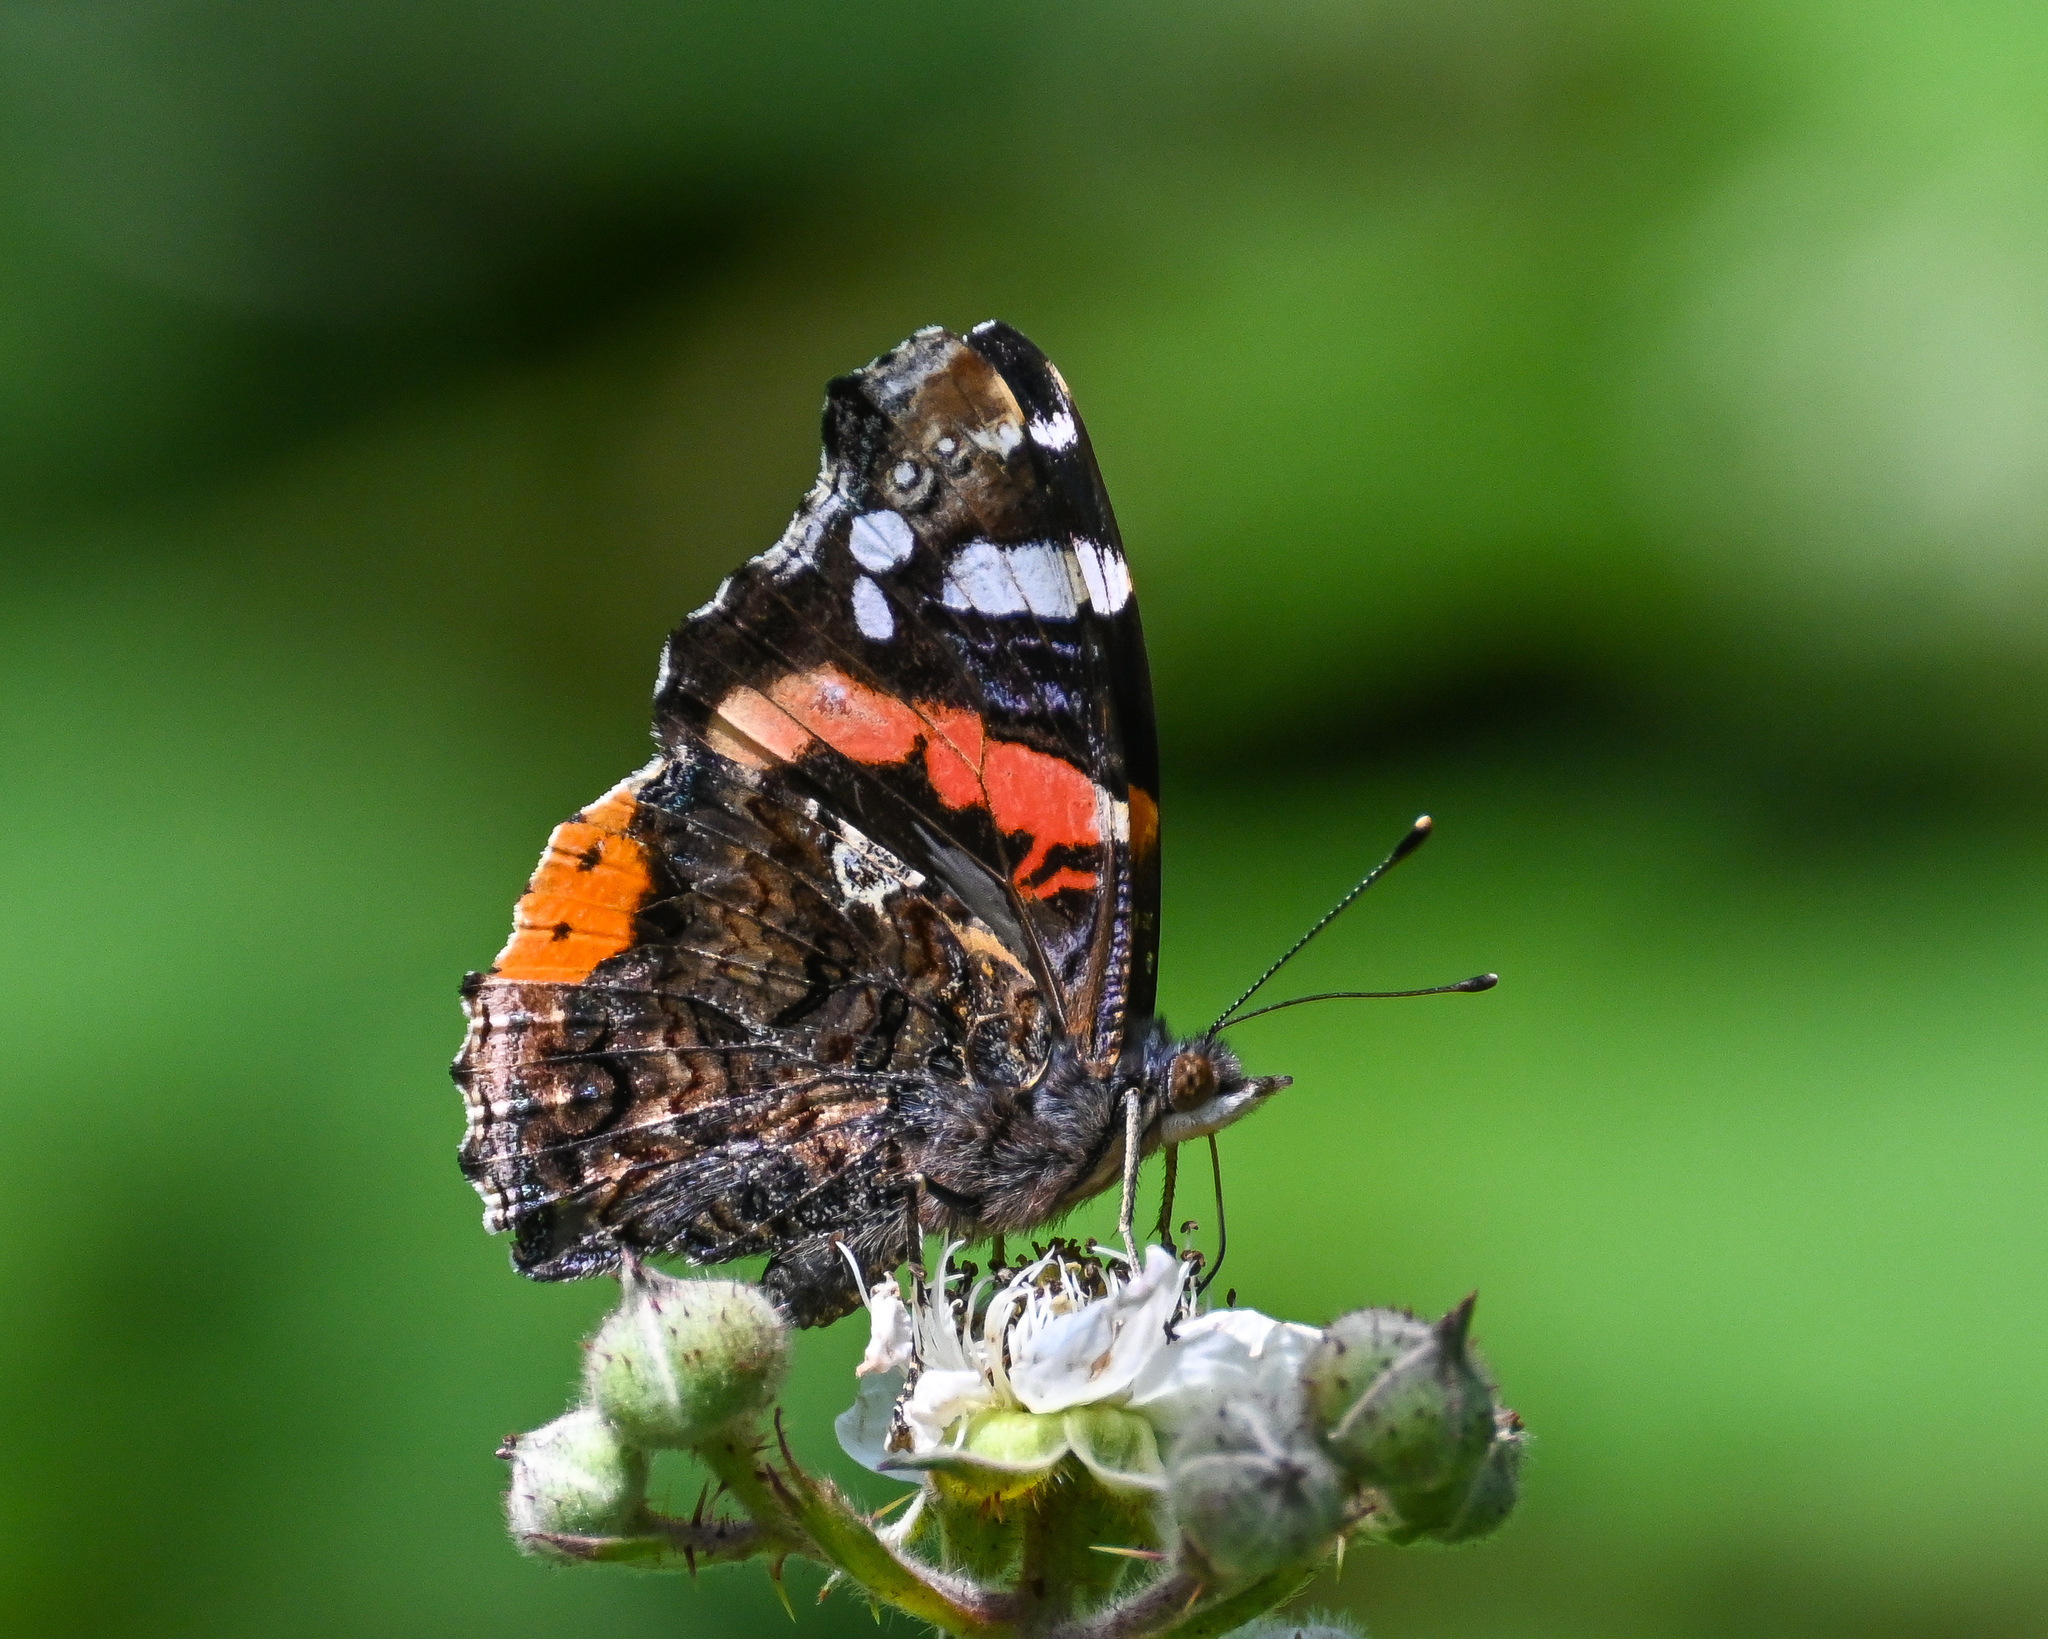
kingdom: Animalia
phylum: Arthropoda
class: Insecta
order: Lepidoptera
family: Nymphalidae
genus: Vanessa
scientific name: Vanessa atalanta
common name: Red admiral
